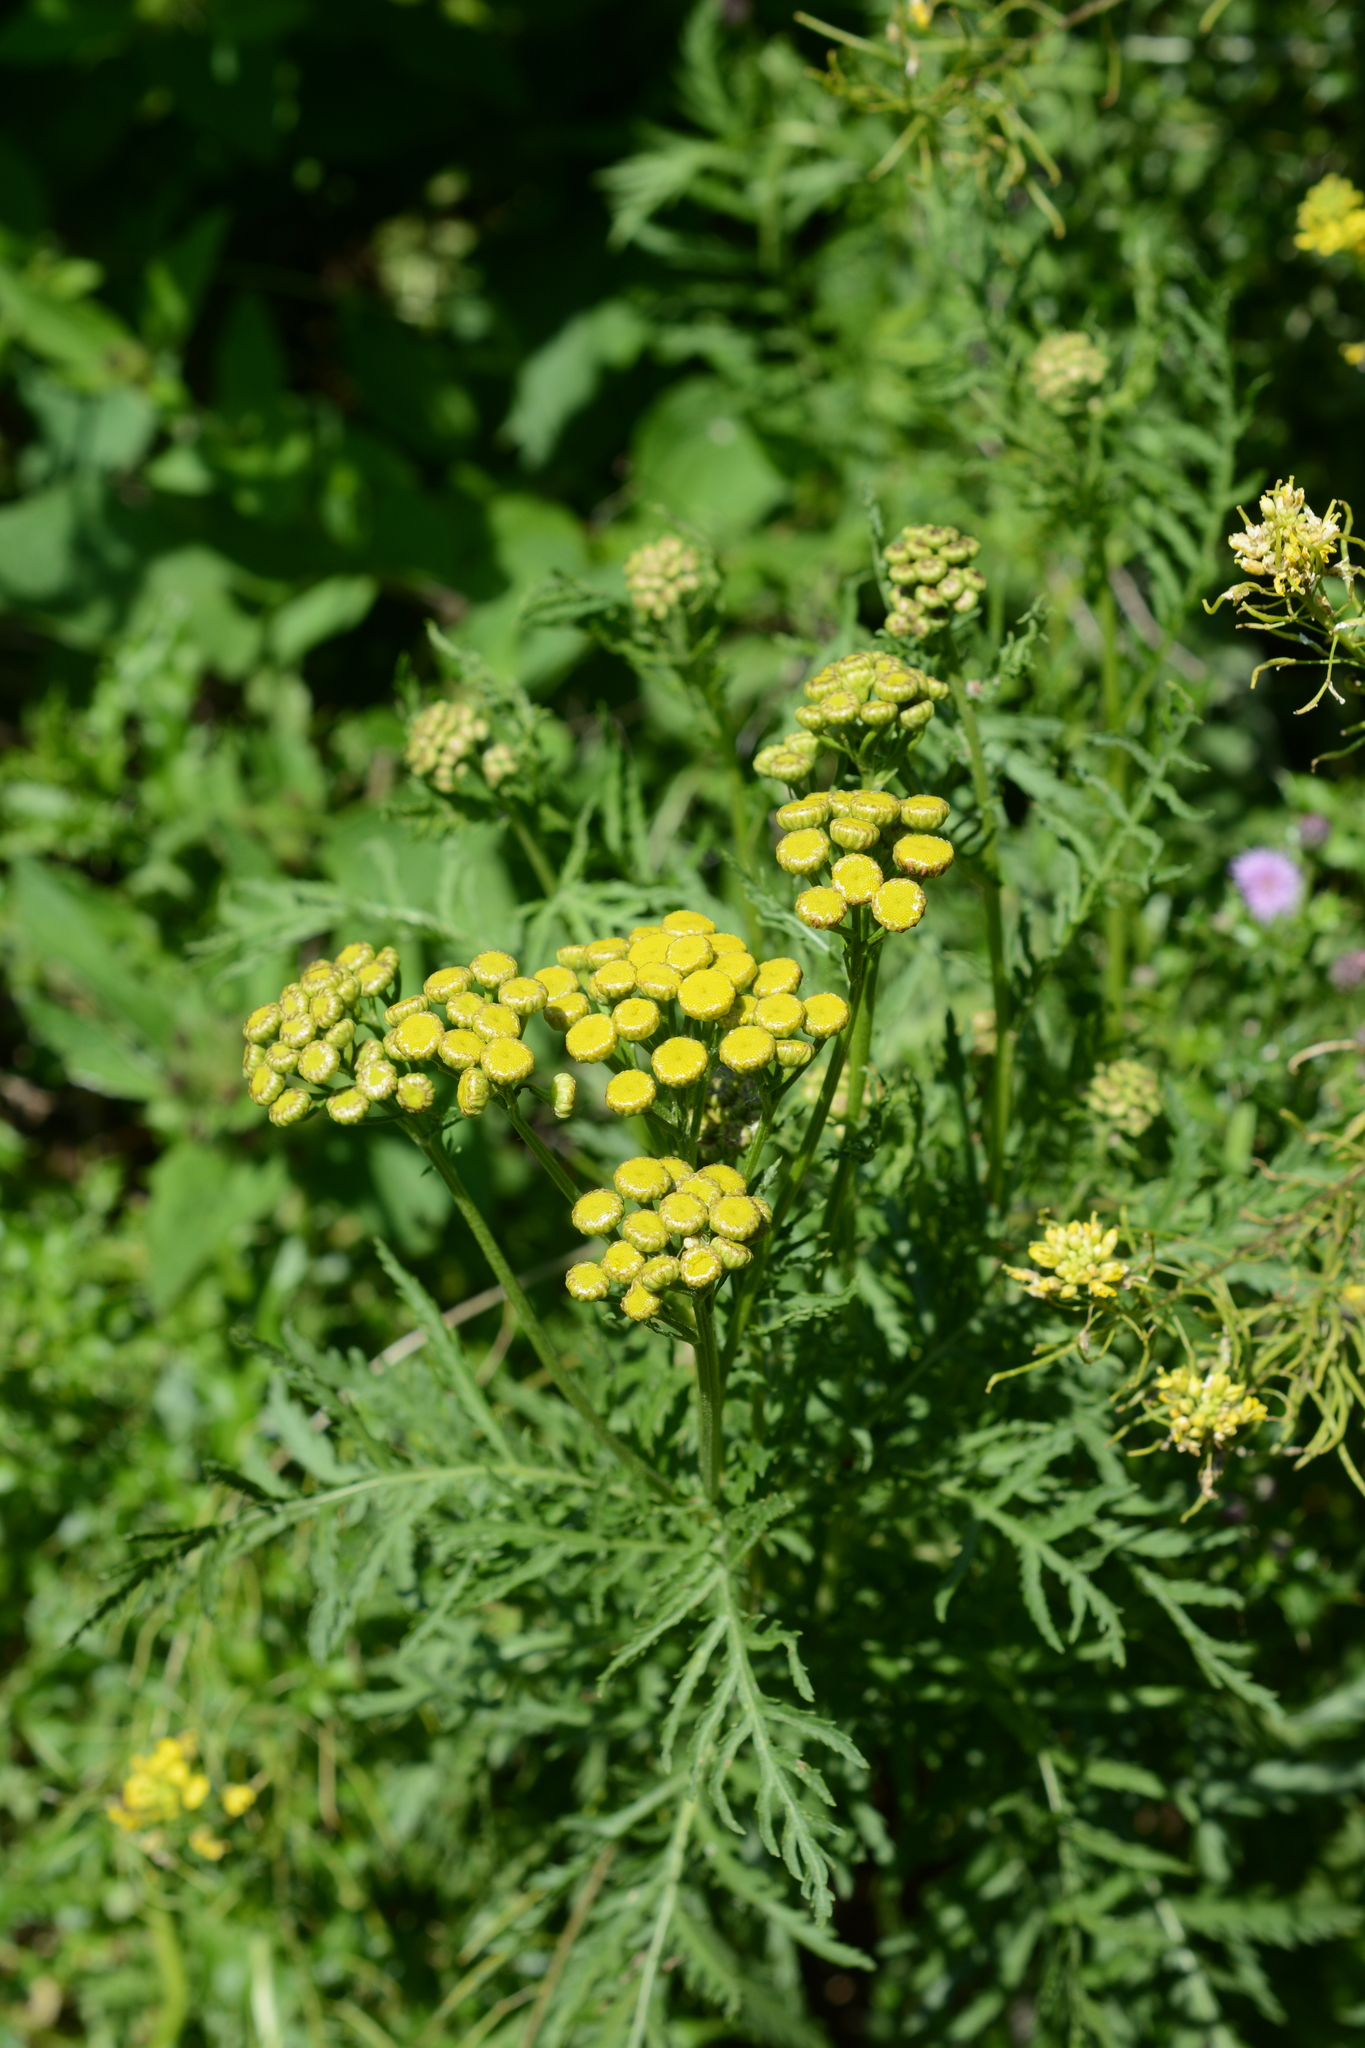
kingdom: Plantae
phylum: Tracheophyta
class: Magnoliopsida
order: Asterales
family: Asteraceae
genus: Tanacetum
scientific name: Tanacetum vulgare
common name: Common tansy
